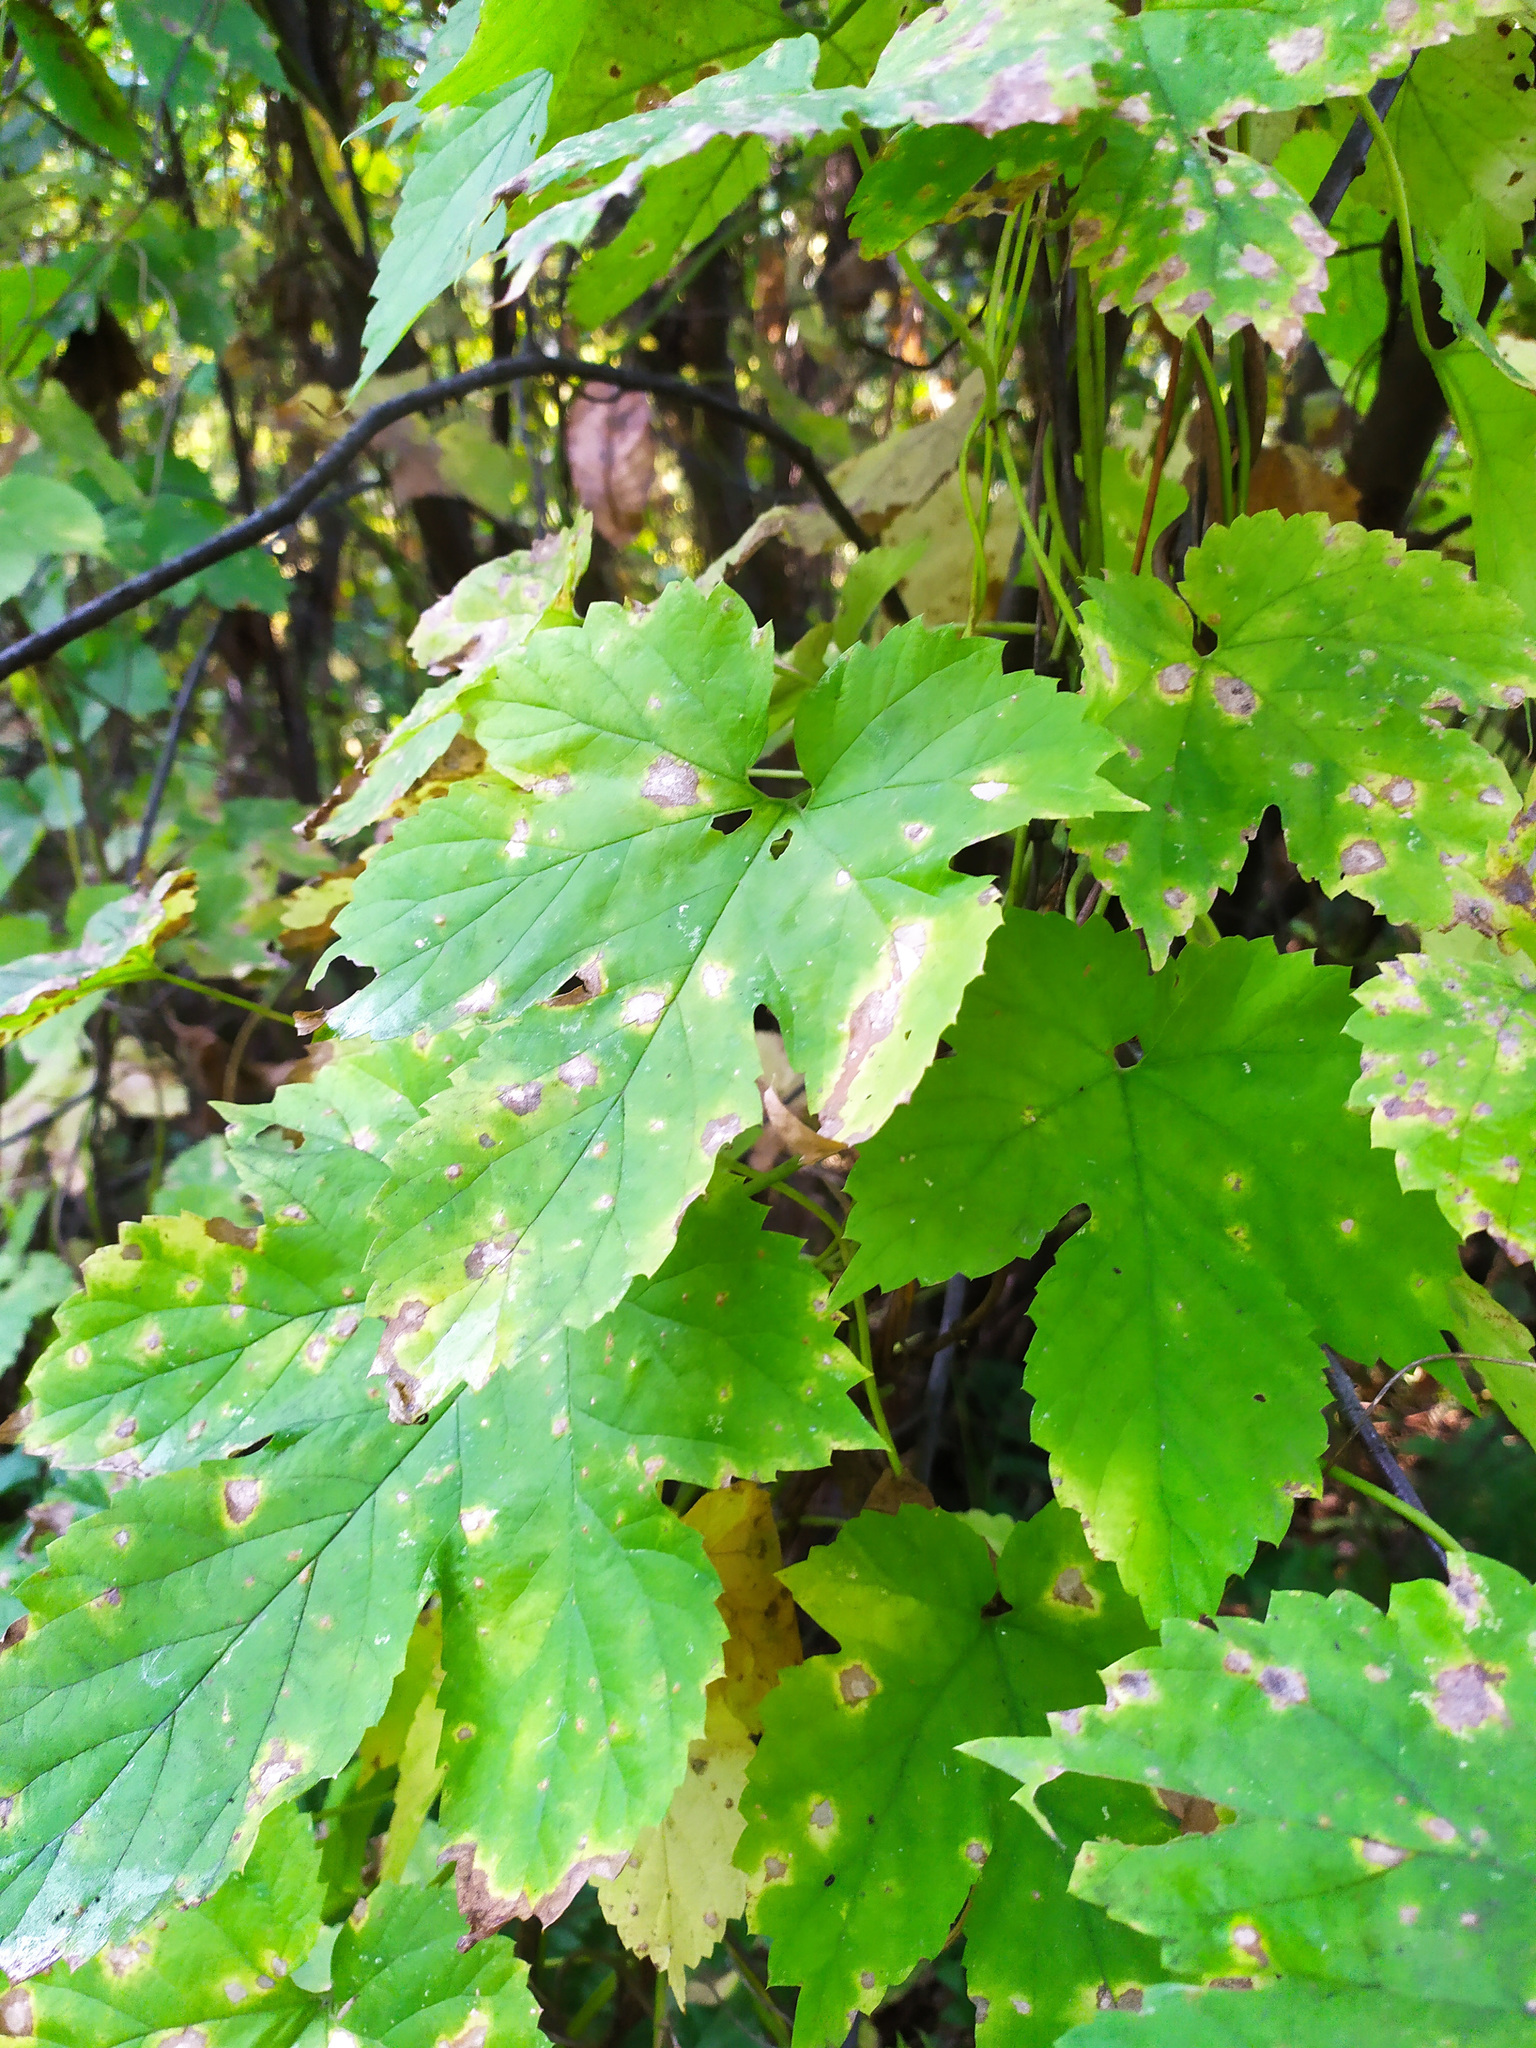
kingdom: Plantae
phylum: Tracheophyta
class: Magnoliopsida
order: Rosales
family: Cannabaceae
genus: Humulus
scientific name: Humulus lupulus
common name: Hop
